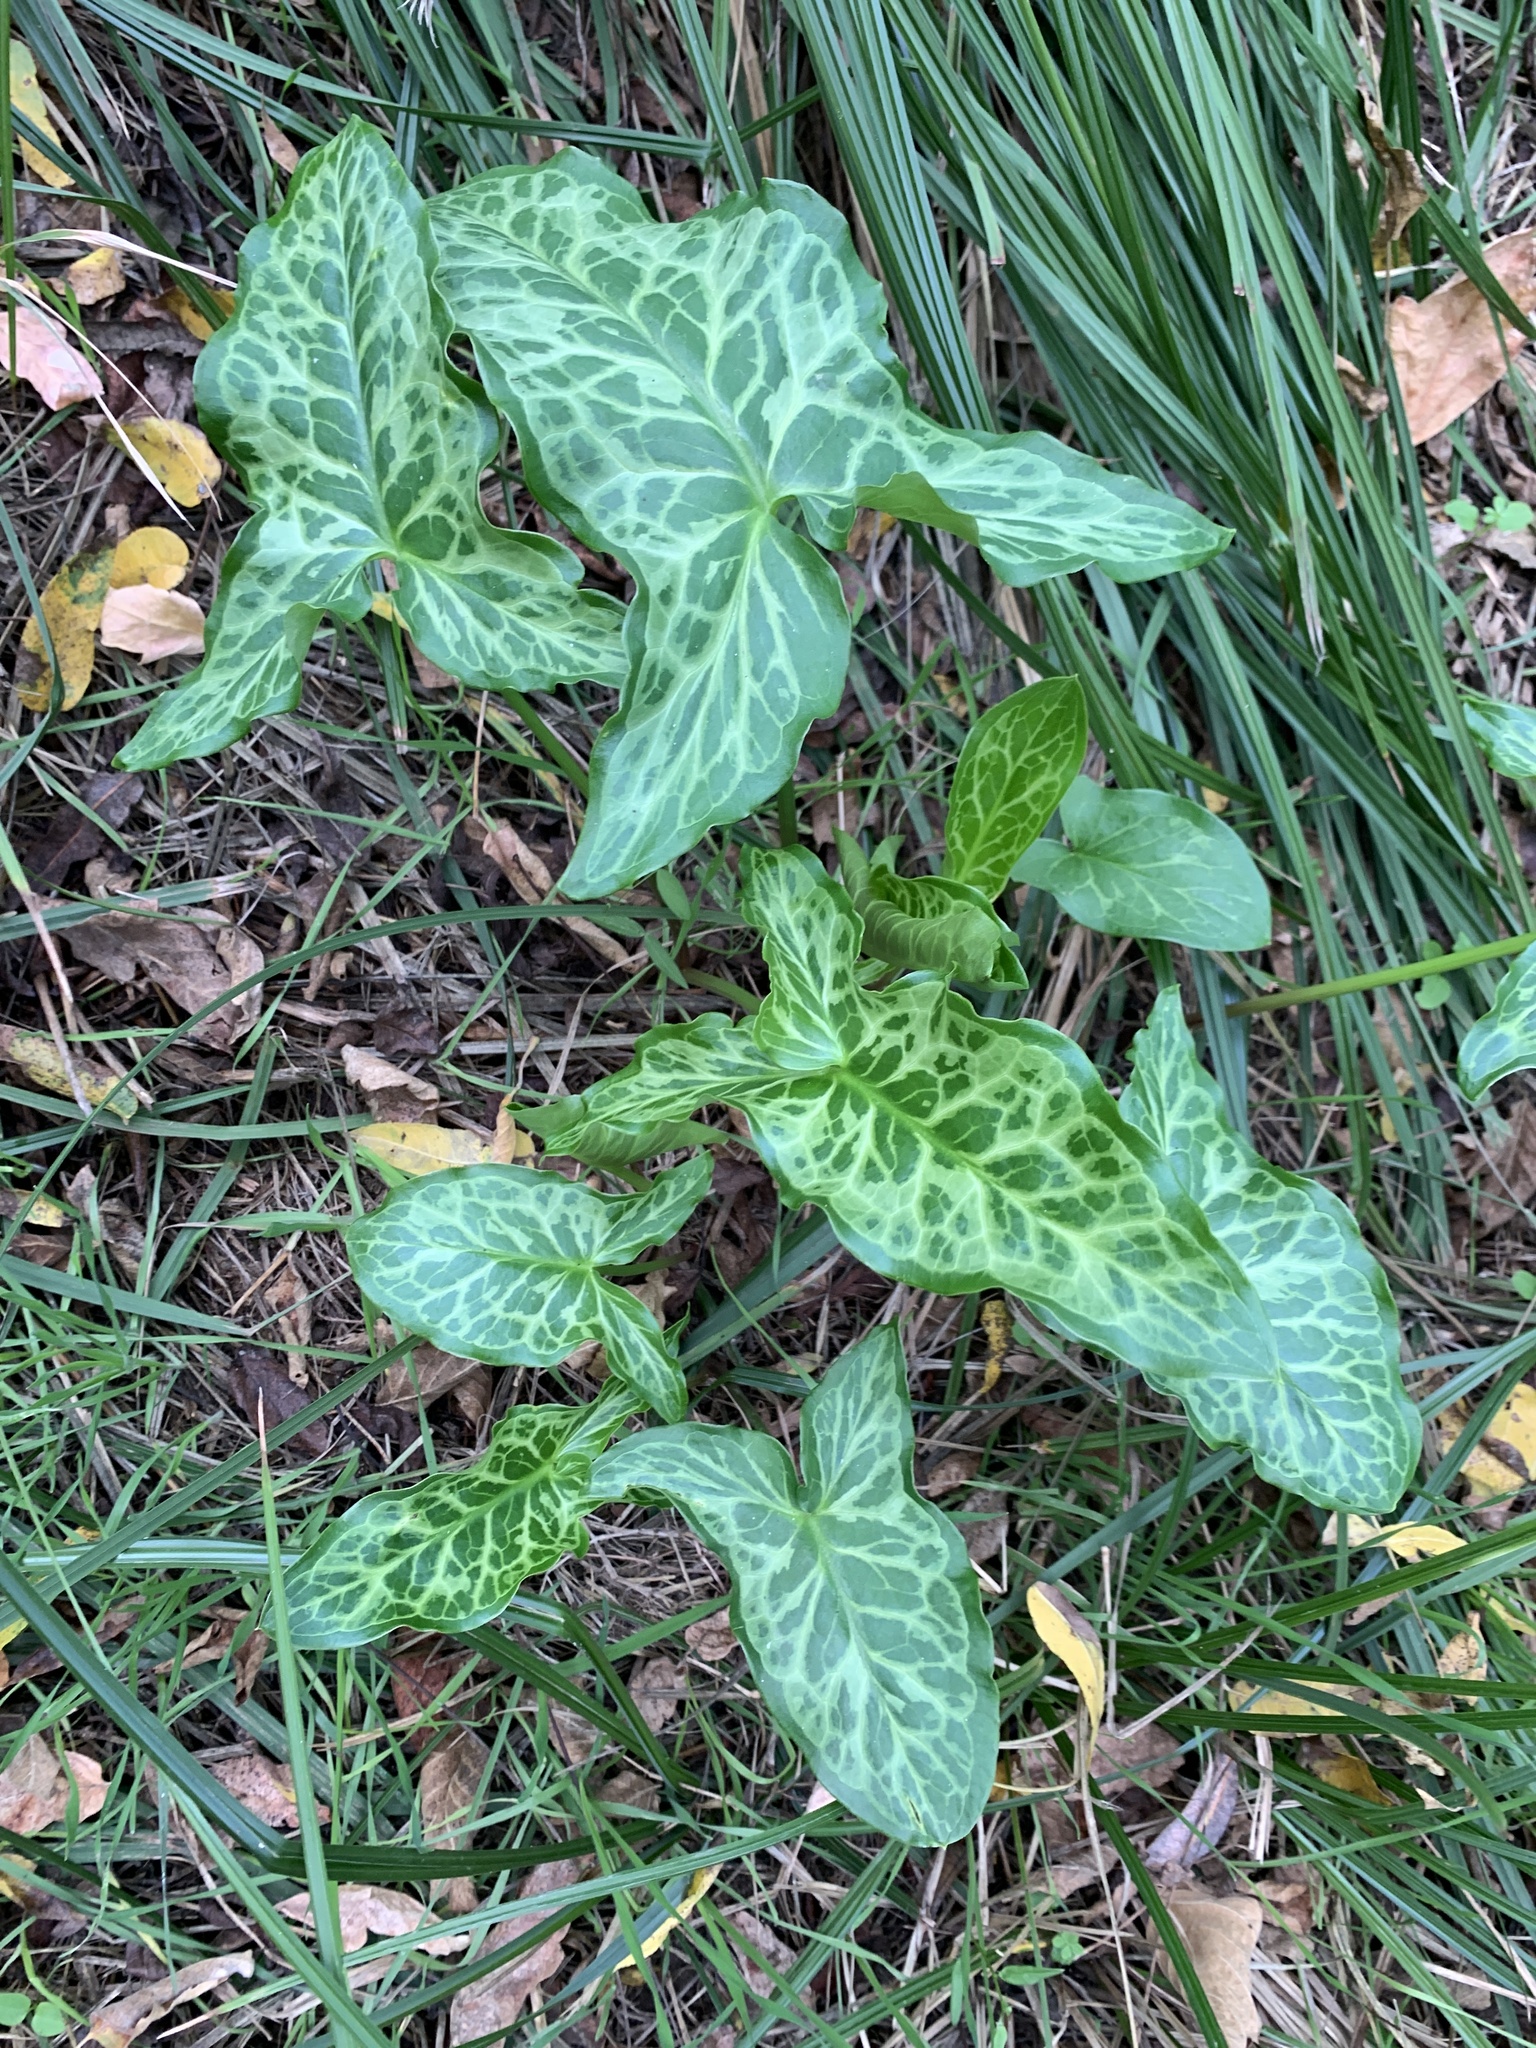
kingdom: Plantae
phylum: Tracheophyta
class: Liliopsida
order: Alismatales
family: Araceae
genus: Arum
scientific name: Arum italicum
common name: Italian lords-and-ladies
